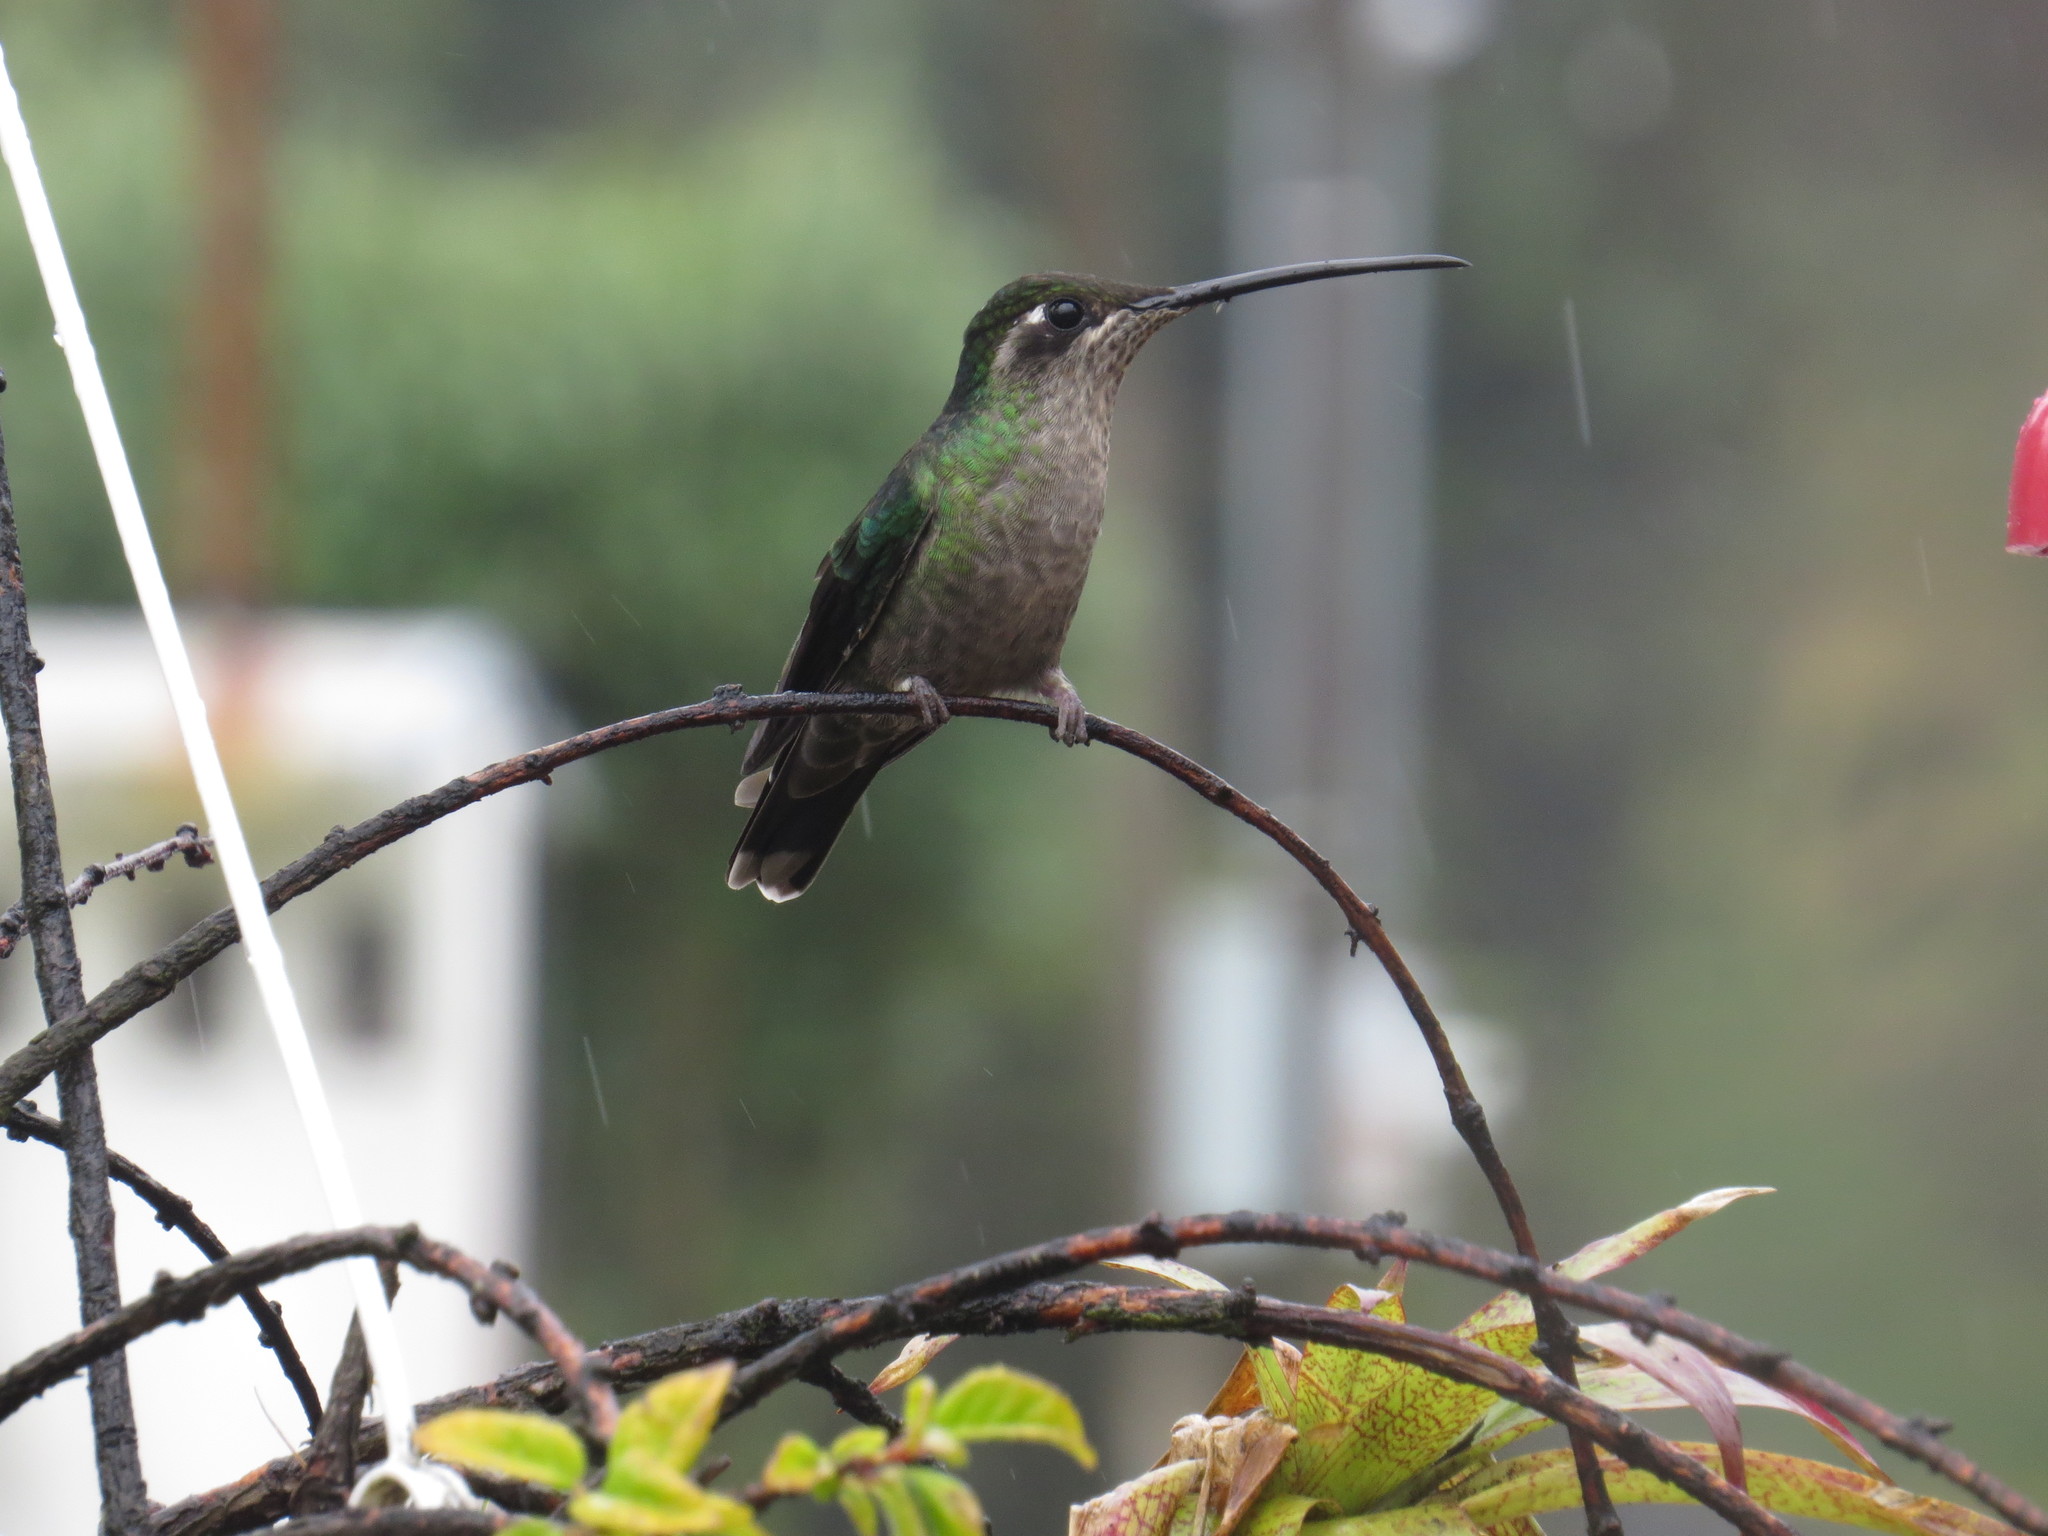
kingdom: Animalia
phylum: Chordata
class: Aves
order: Apodiformes
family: Trochilidae
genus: Eugenes
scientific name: Eugenes spectabilis
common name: Talamanca hummingbird
